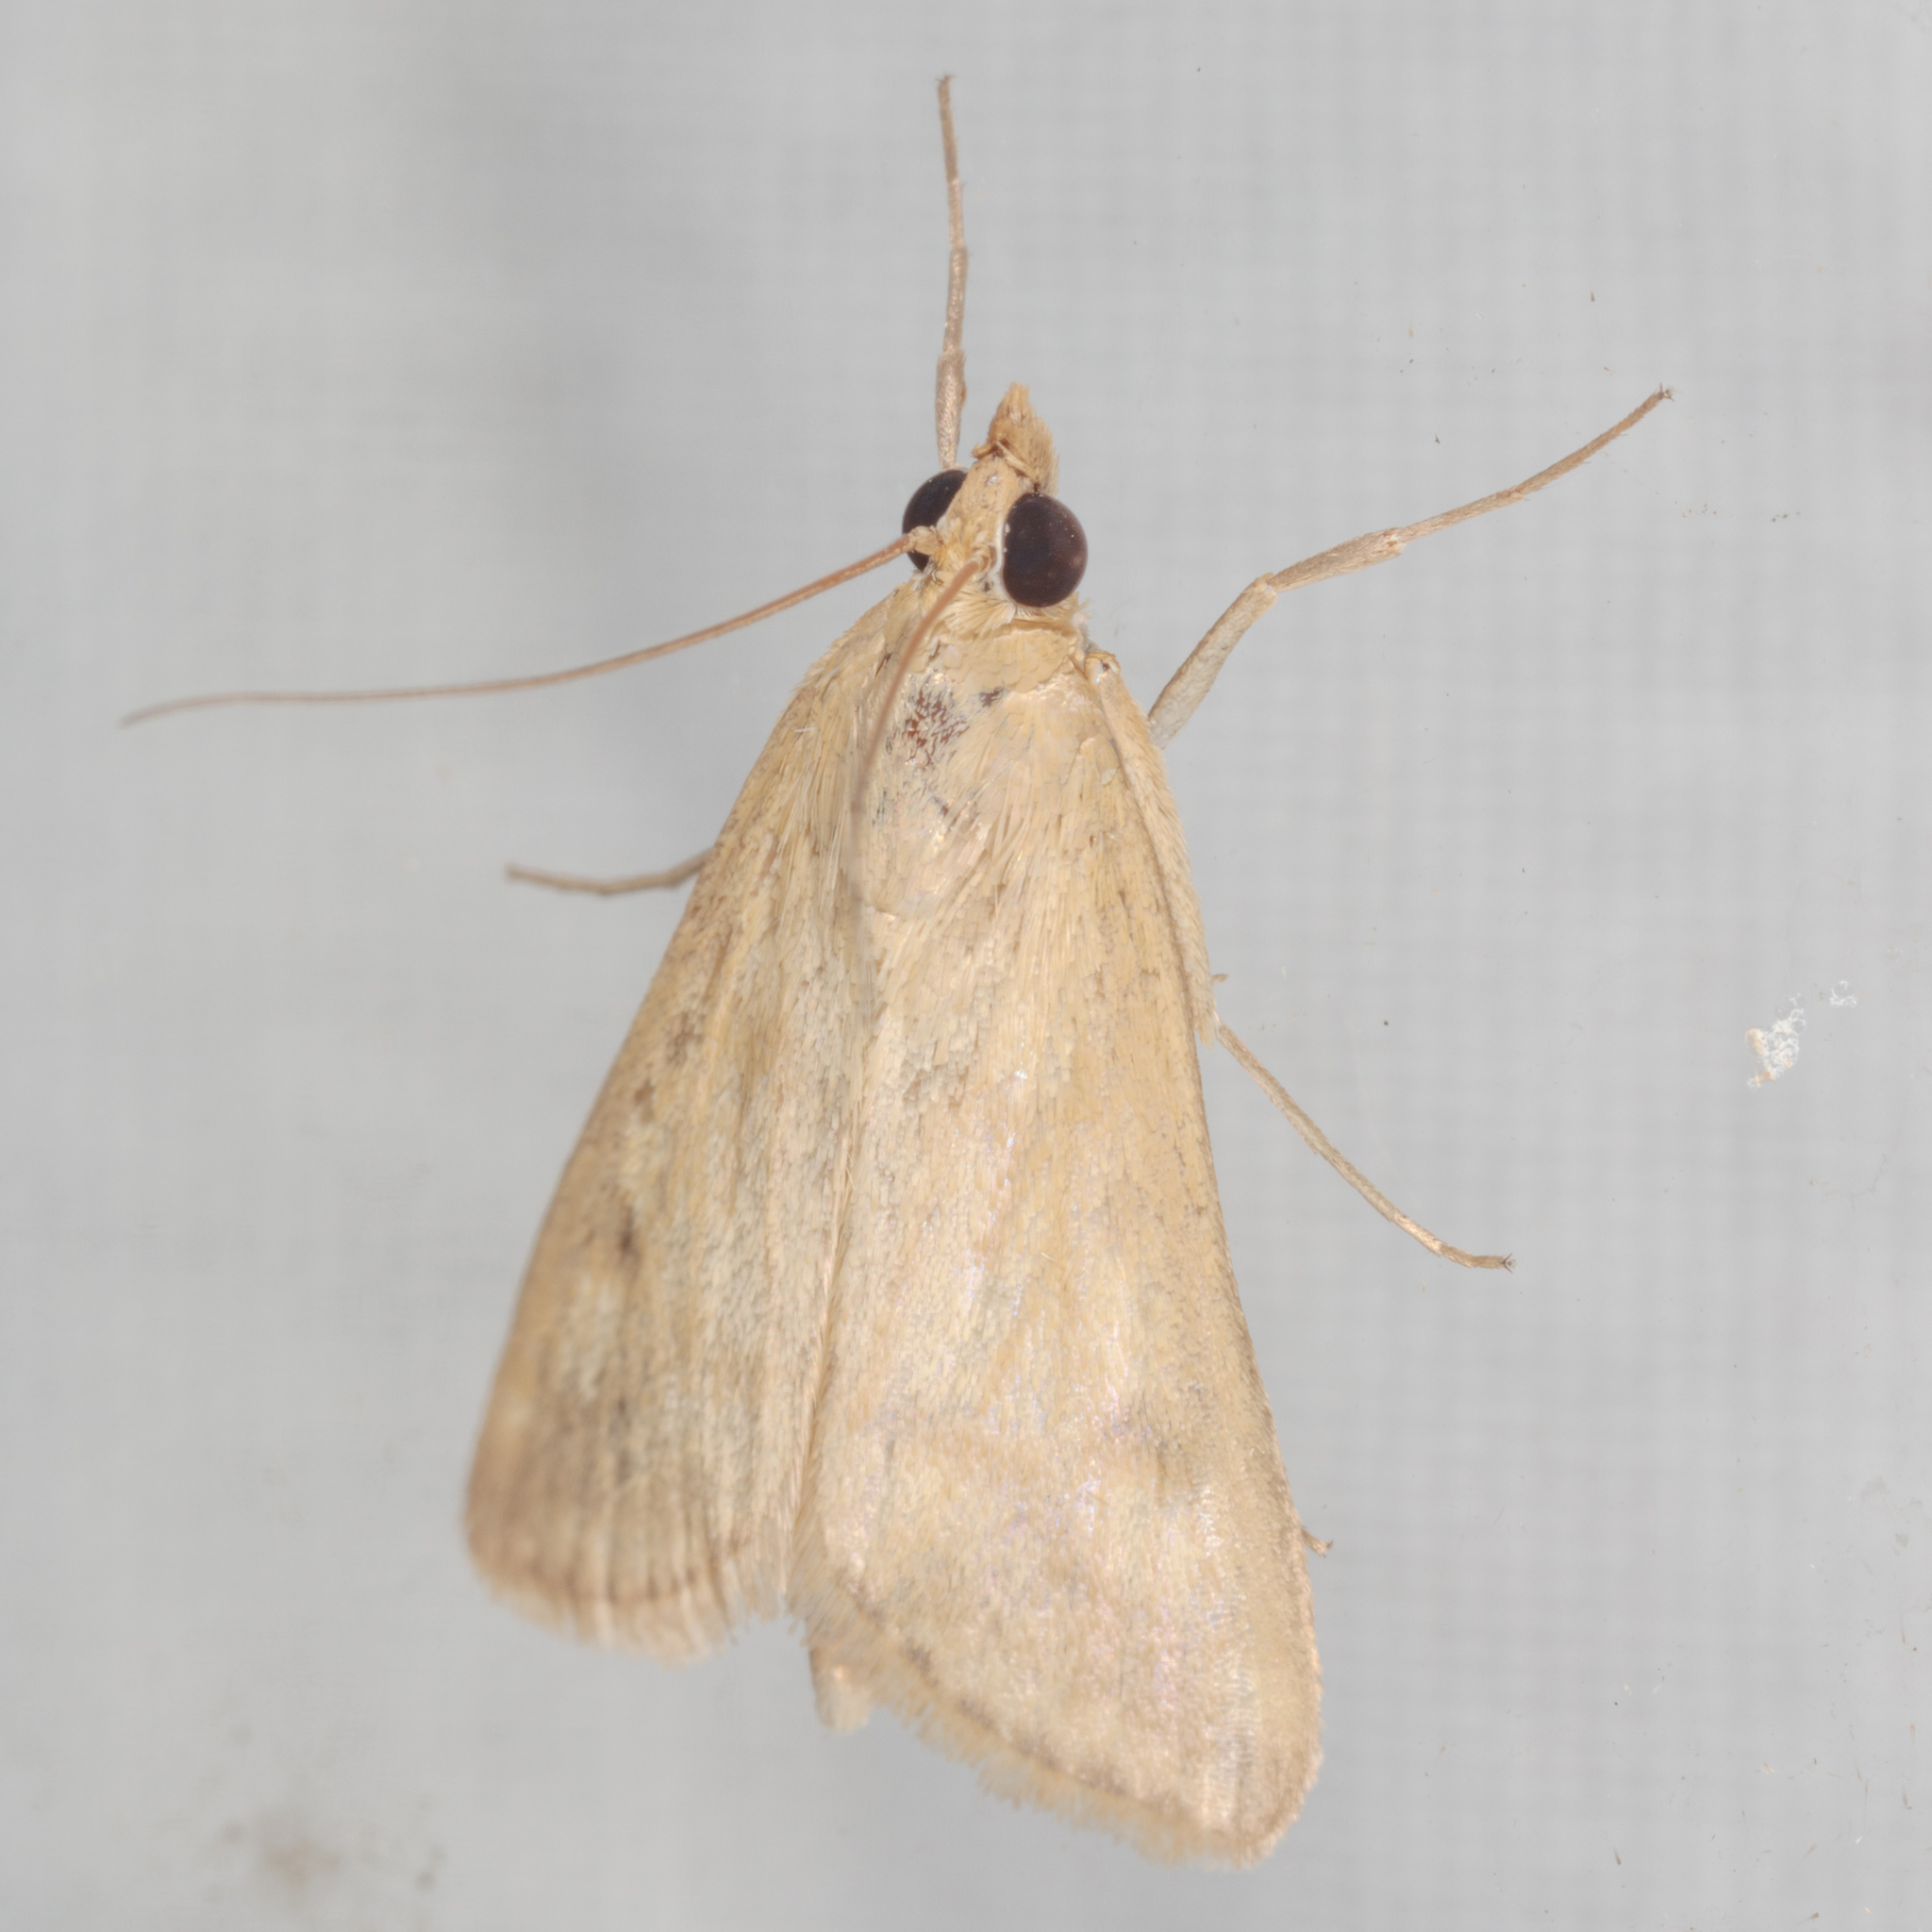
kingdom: Animalia
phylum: Arthropoda
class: Insecta
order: Lepidoptera
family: Crambidae
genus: Achyra
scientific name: Achyra rantalis
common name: Garden webworm
